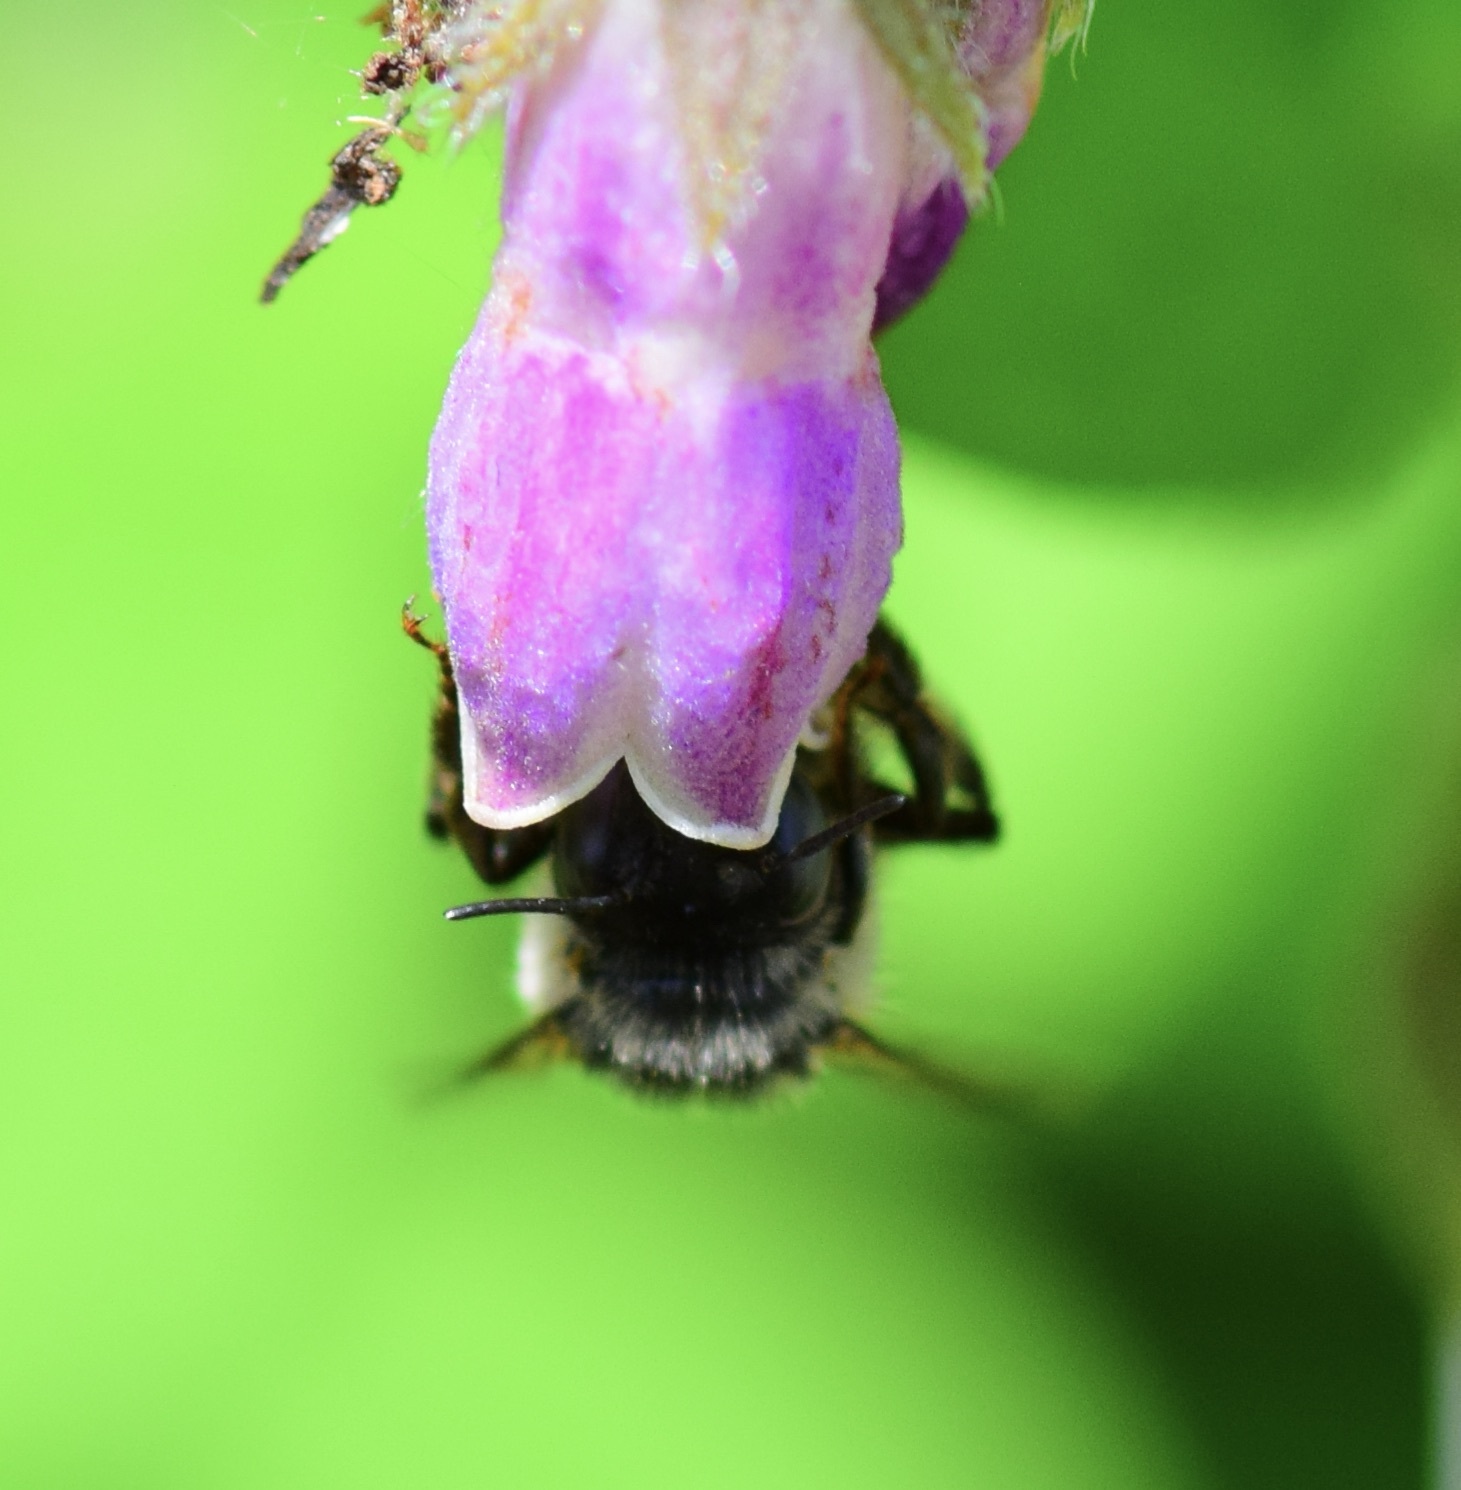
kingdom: Animalia
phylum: Arthropoda
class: Insecta
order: Hymenoptera
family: Apidae
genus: Anthophora
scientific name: Anthophora terminalis
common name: Orange-tipped wood-digger bee
